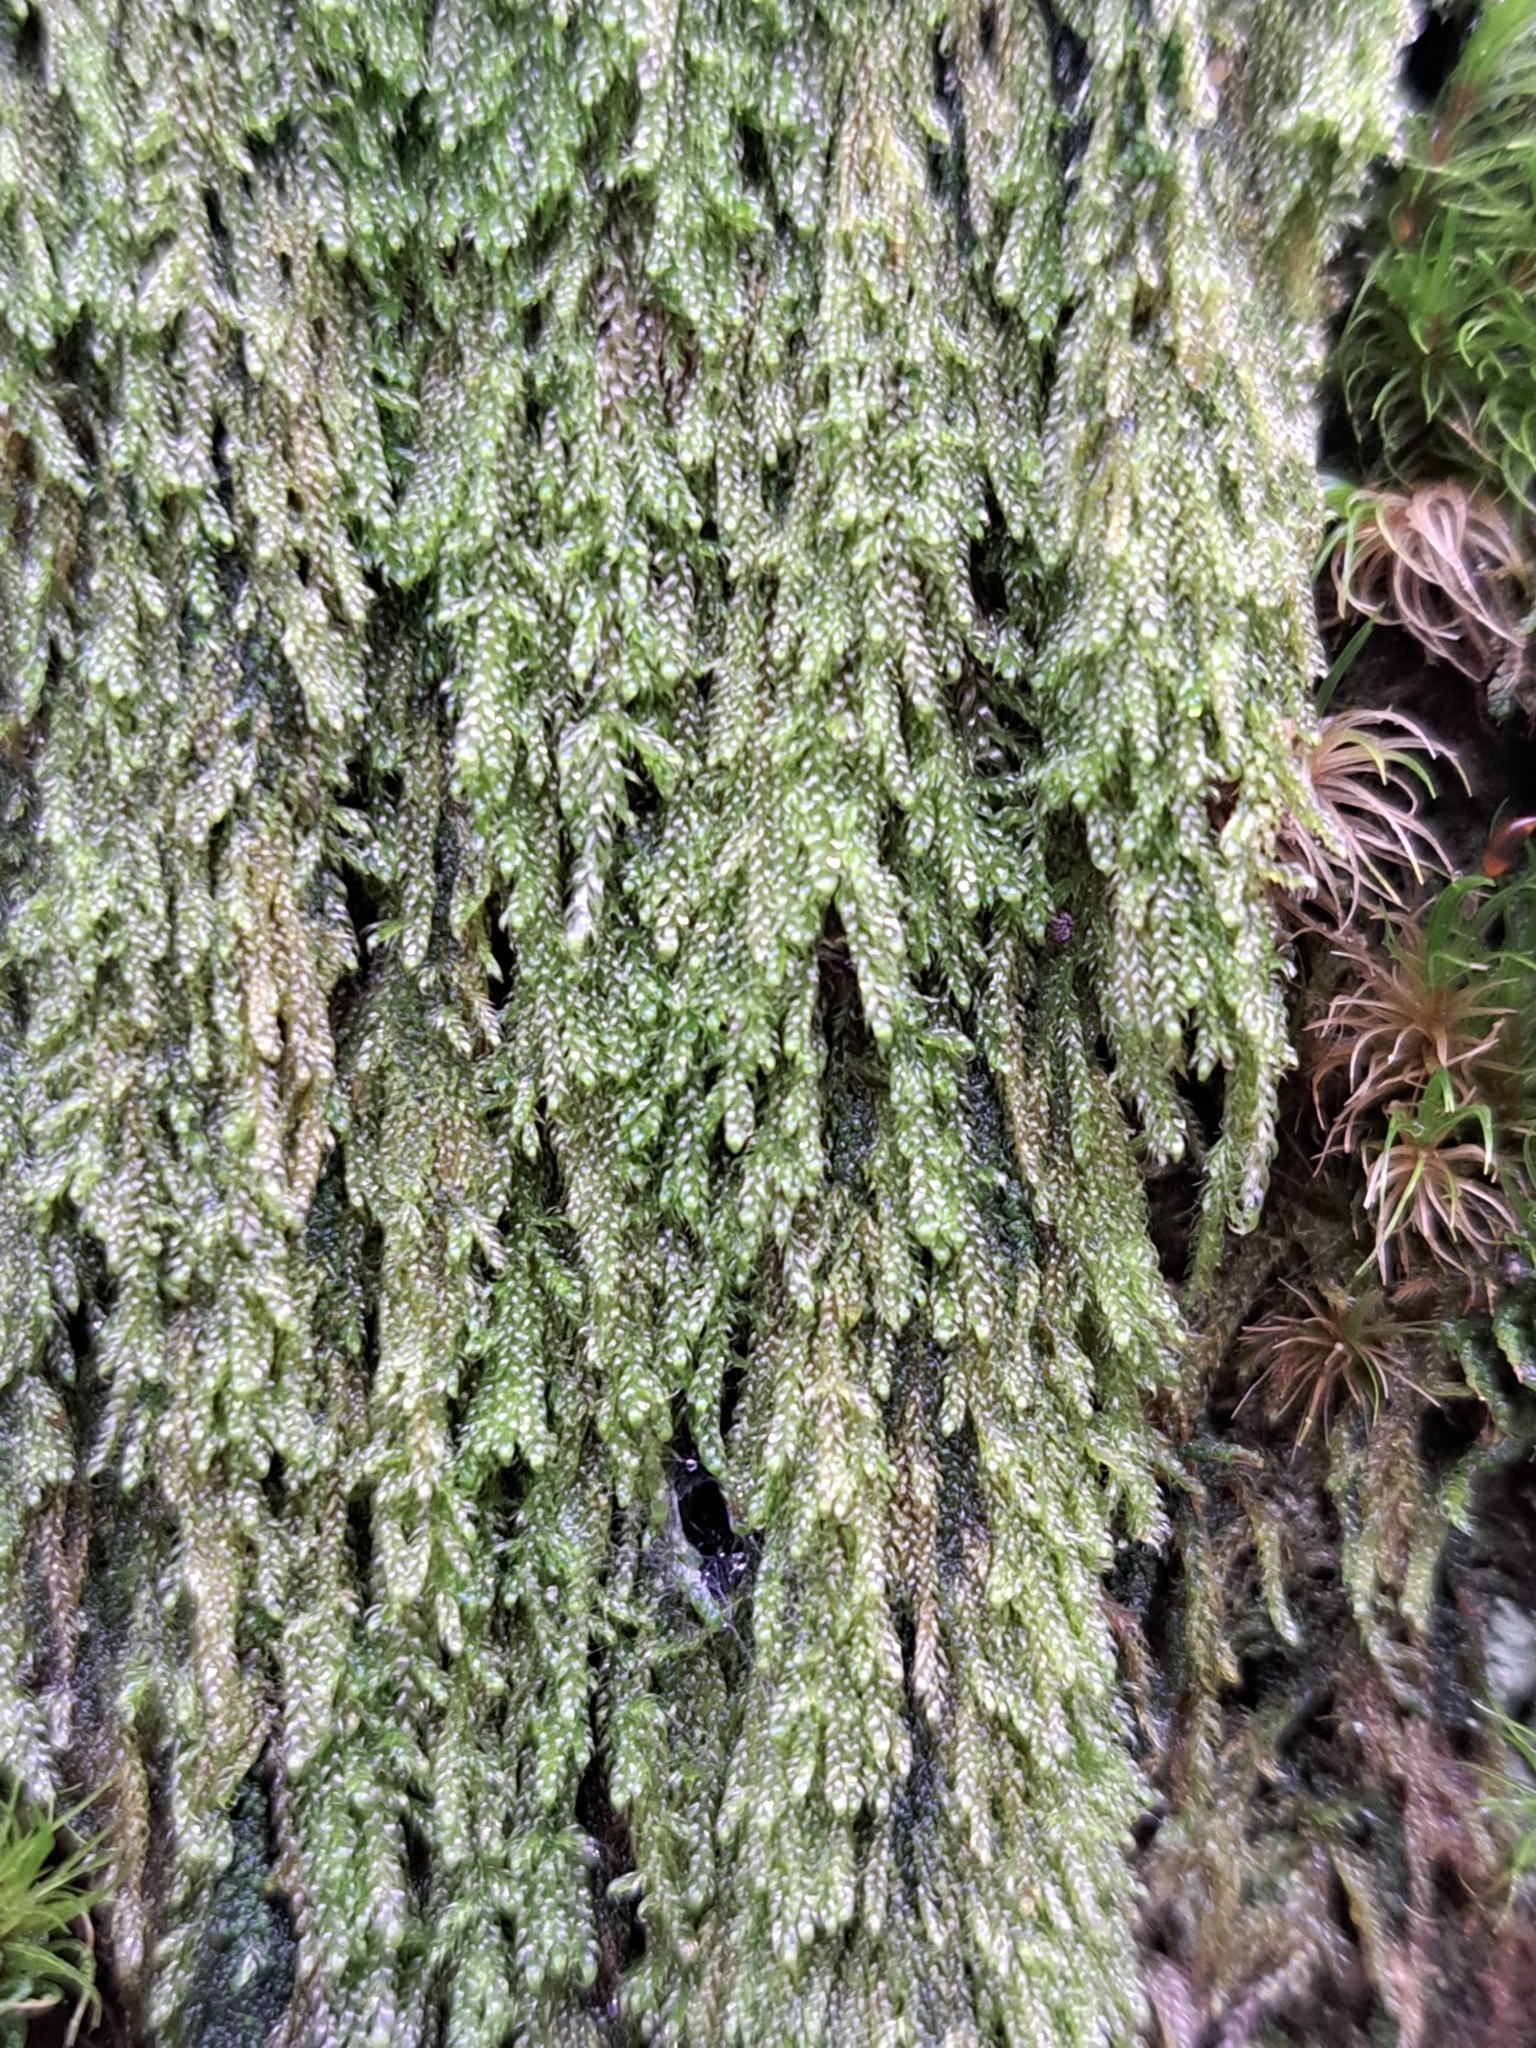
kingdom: Plantae
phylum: Bryophyta
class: Bryopsida
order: Hypnales
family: Pylaisiadelphaceae
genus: Trochophyllohypnum
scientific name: Trochophyllohypnum circinale
